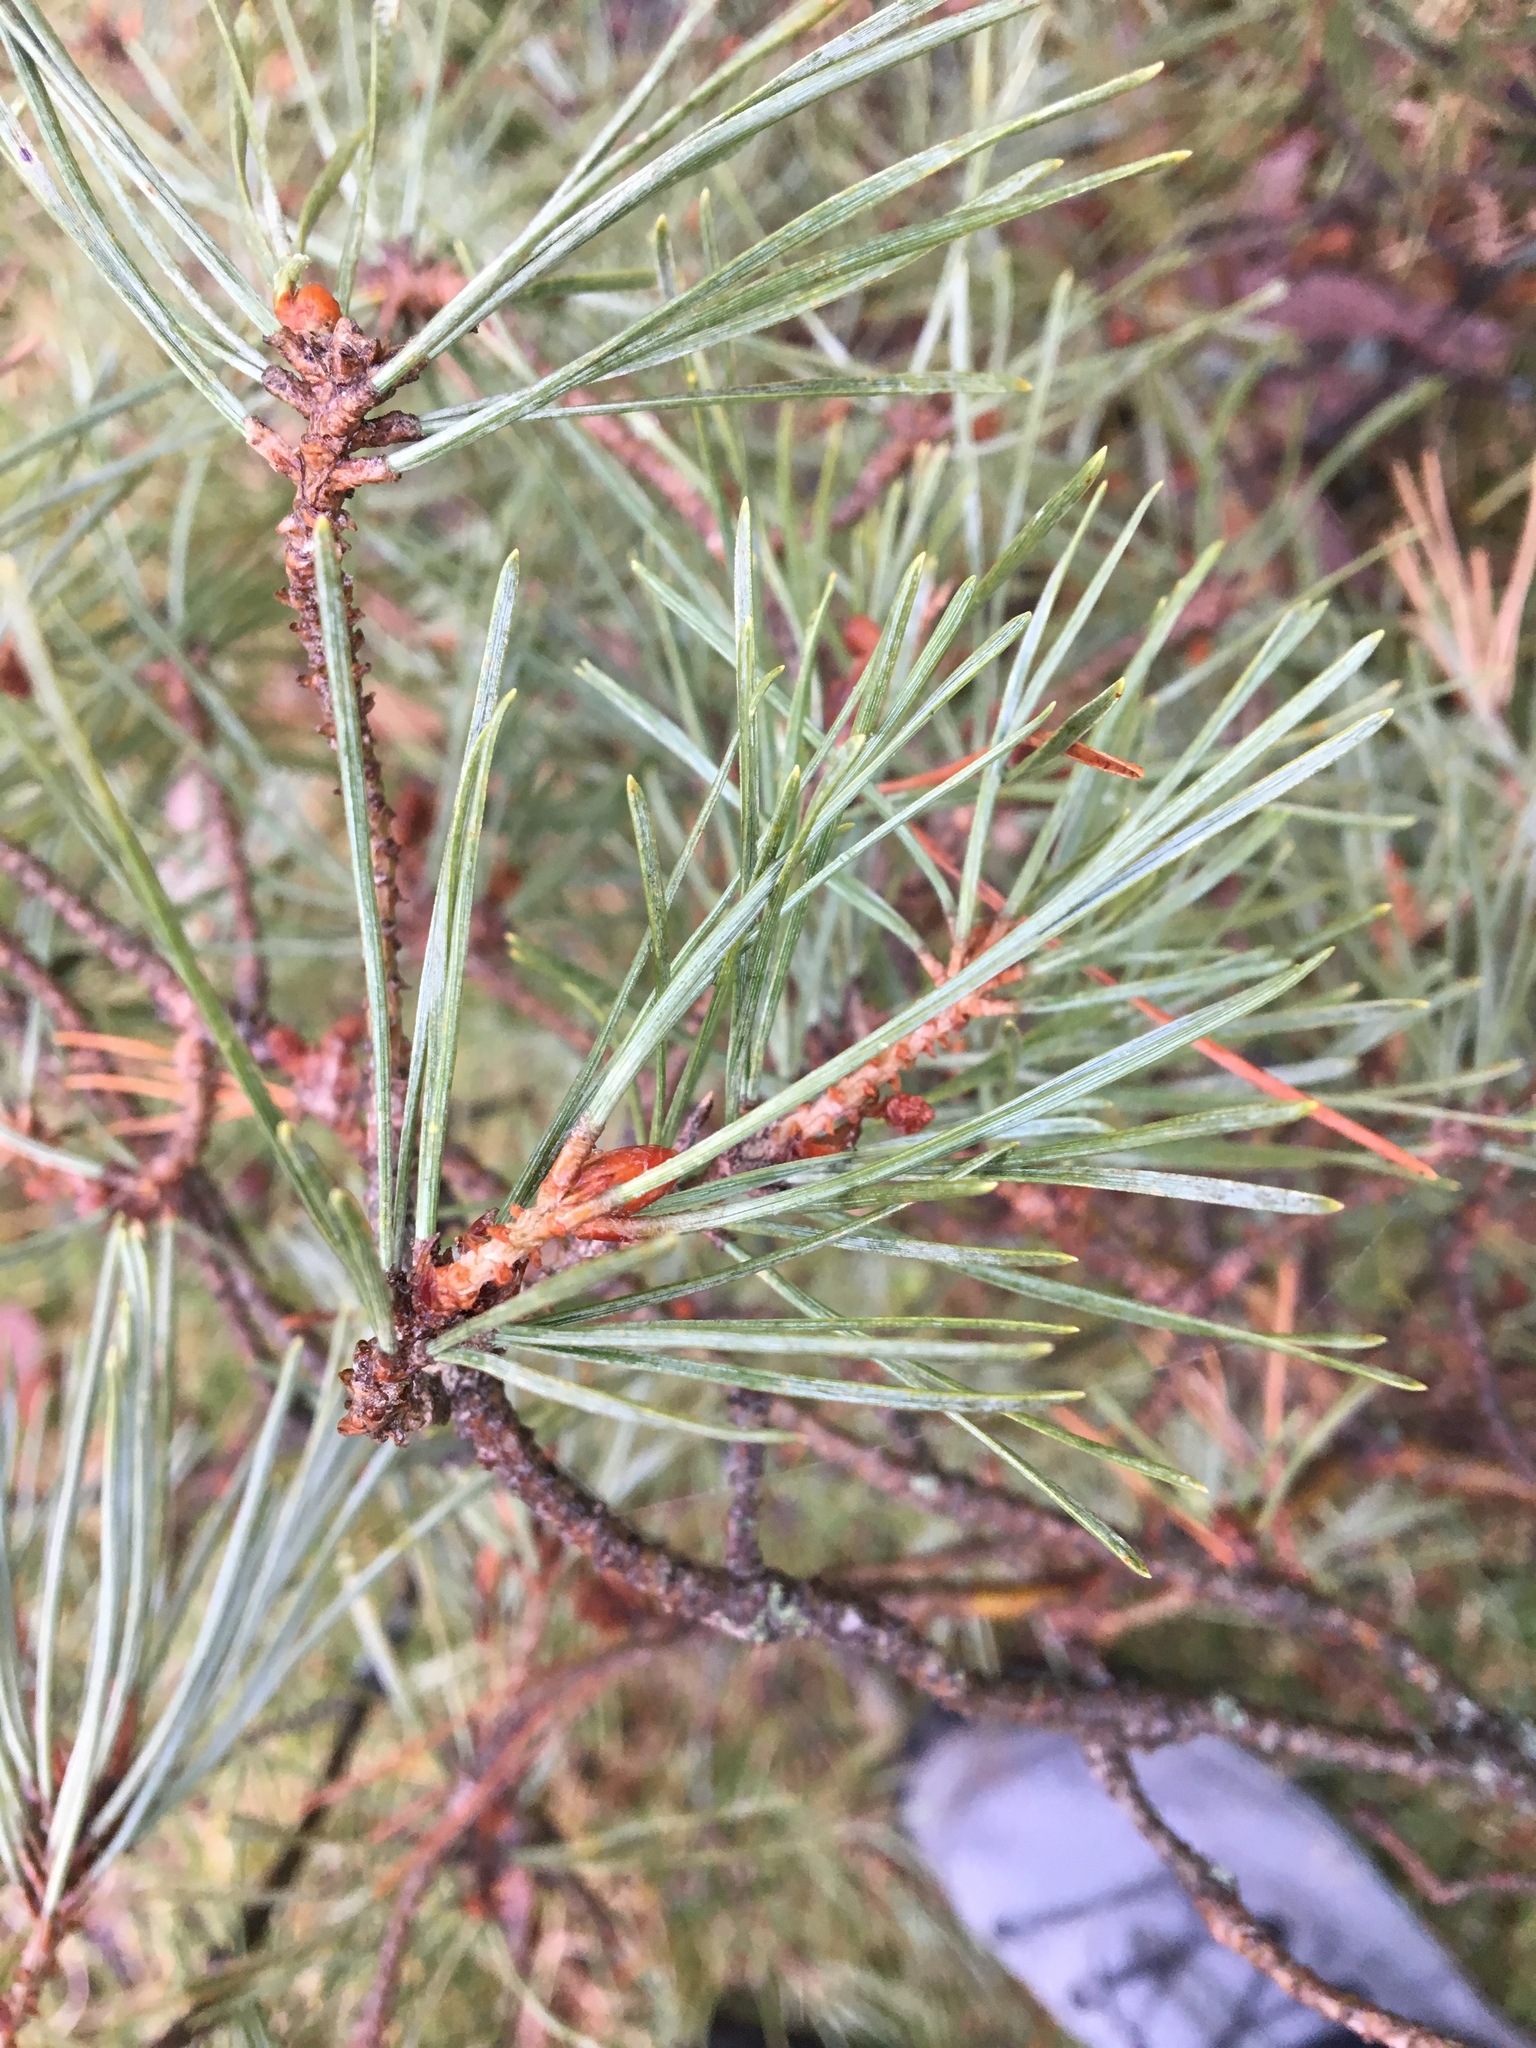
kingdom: Plantae
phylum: Tracheophyta
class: Pinopsida
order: Pinales
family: Pinaceae
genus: Pinus
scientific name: Pinus sylvestris
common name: Scots pine
